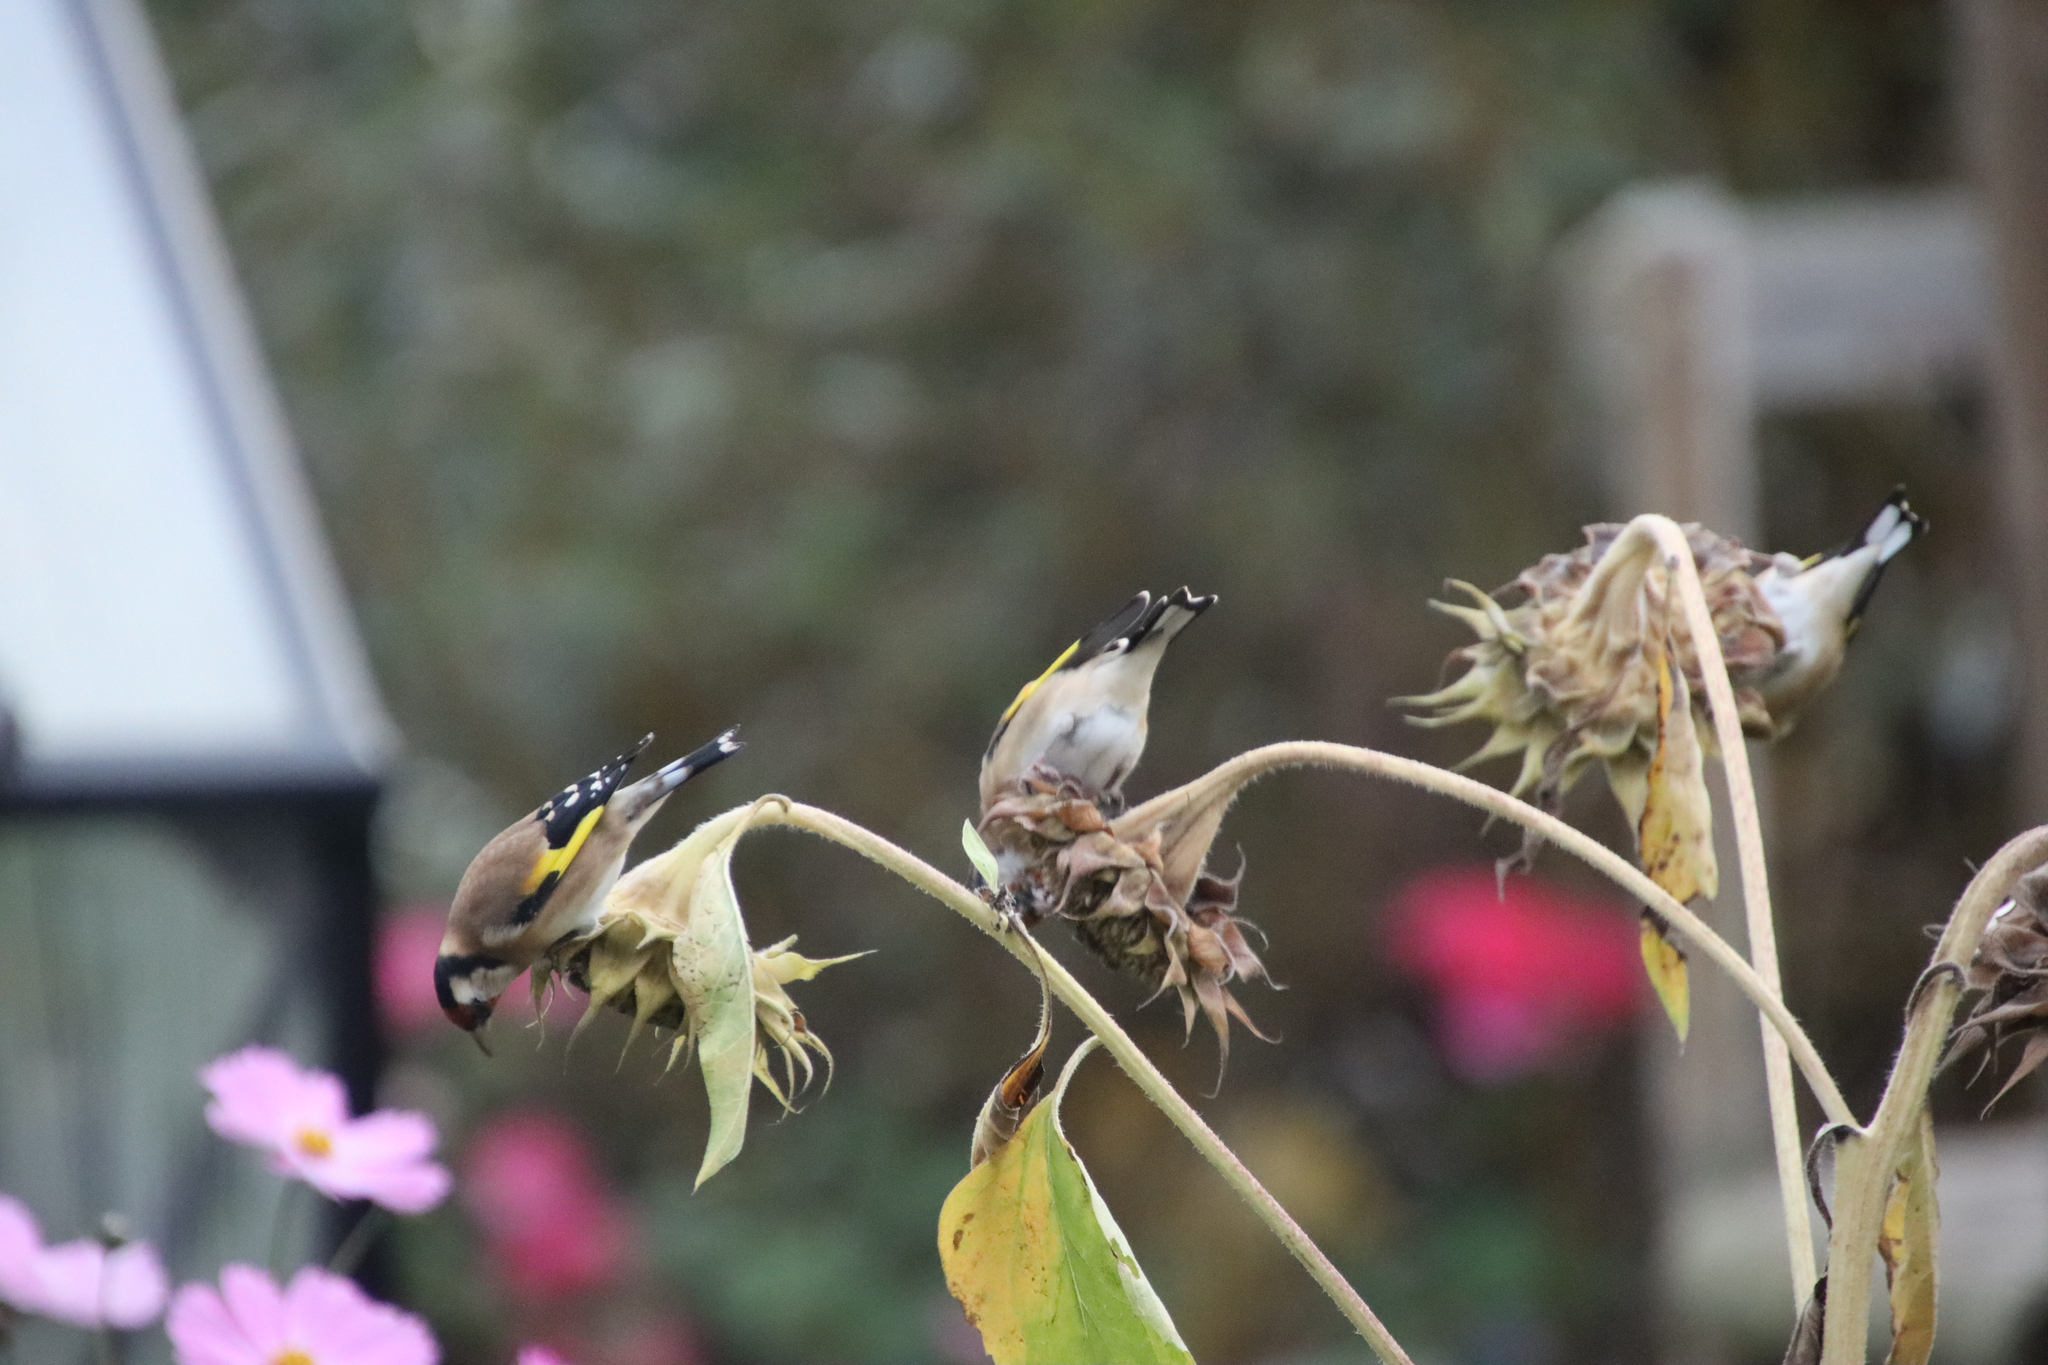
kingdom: Animalia
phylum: Chordata
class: Aves
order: Passeriformes
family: Fringillidae
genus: Carduelis
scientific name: Carduelis carduelis
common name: European goldfinch
